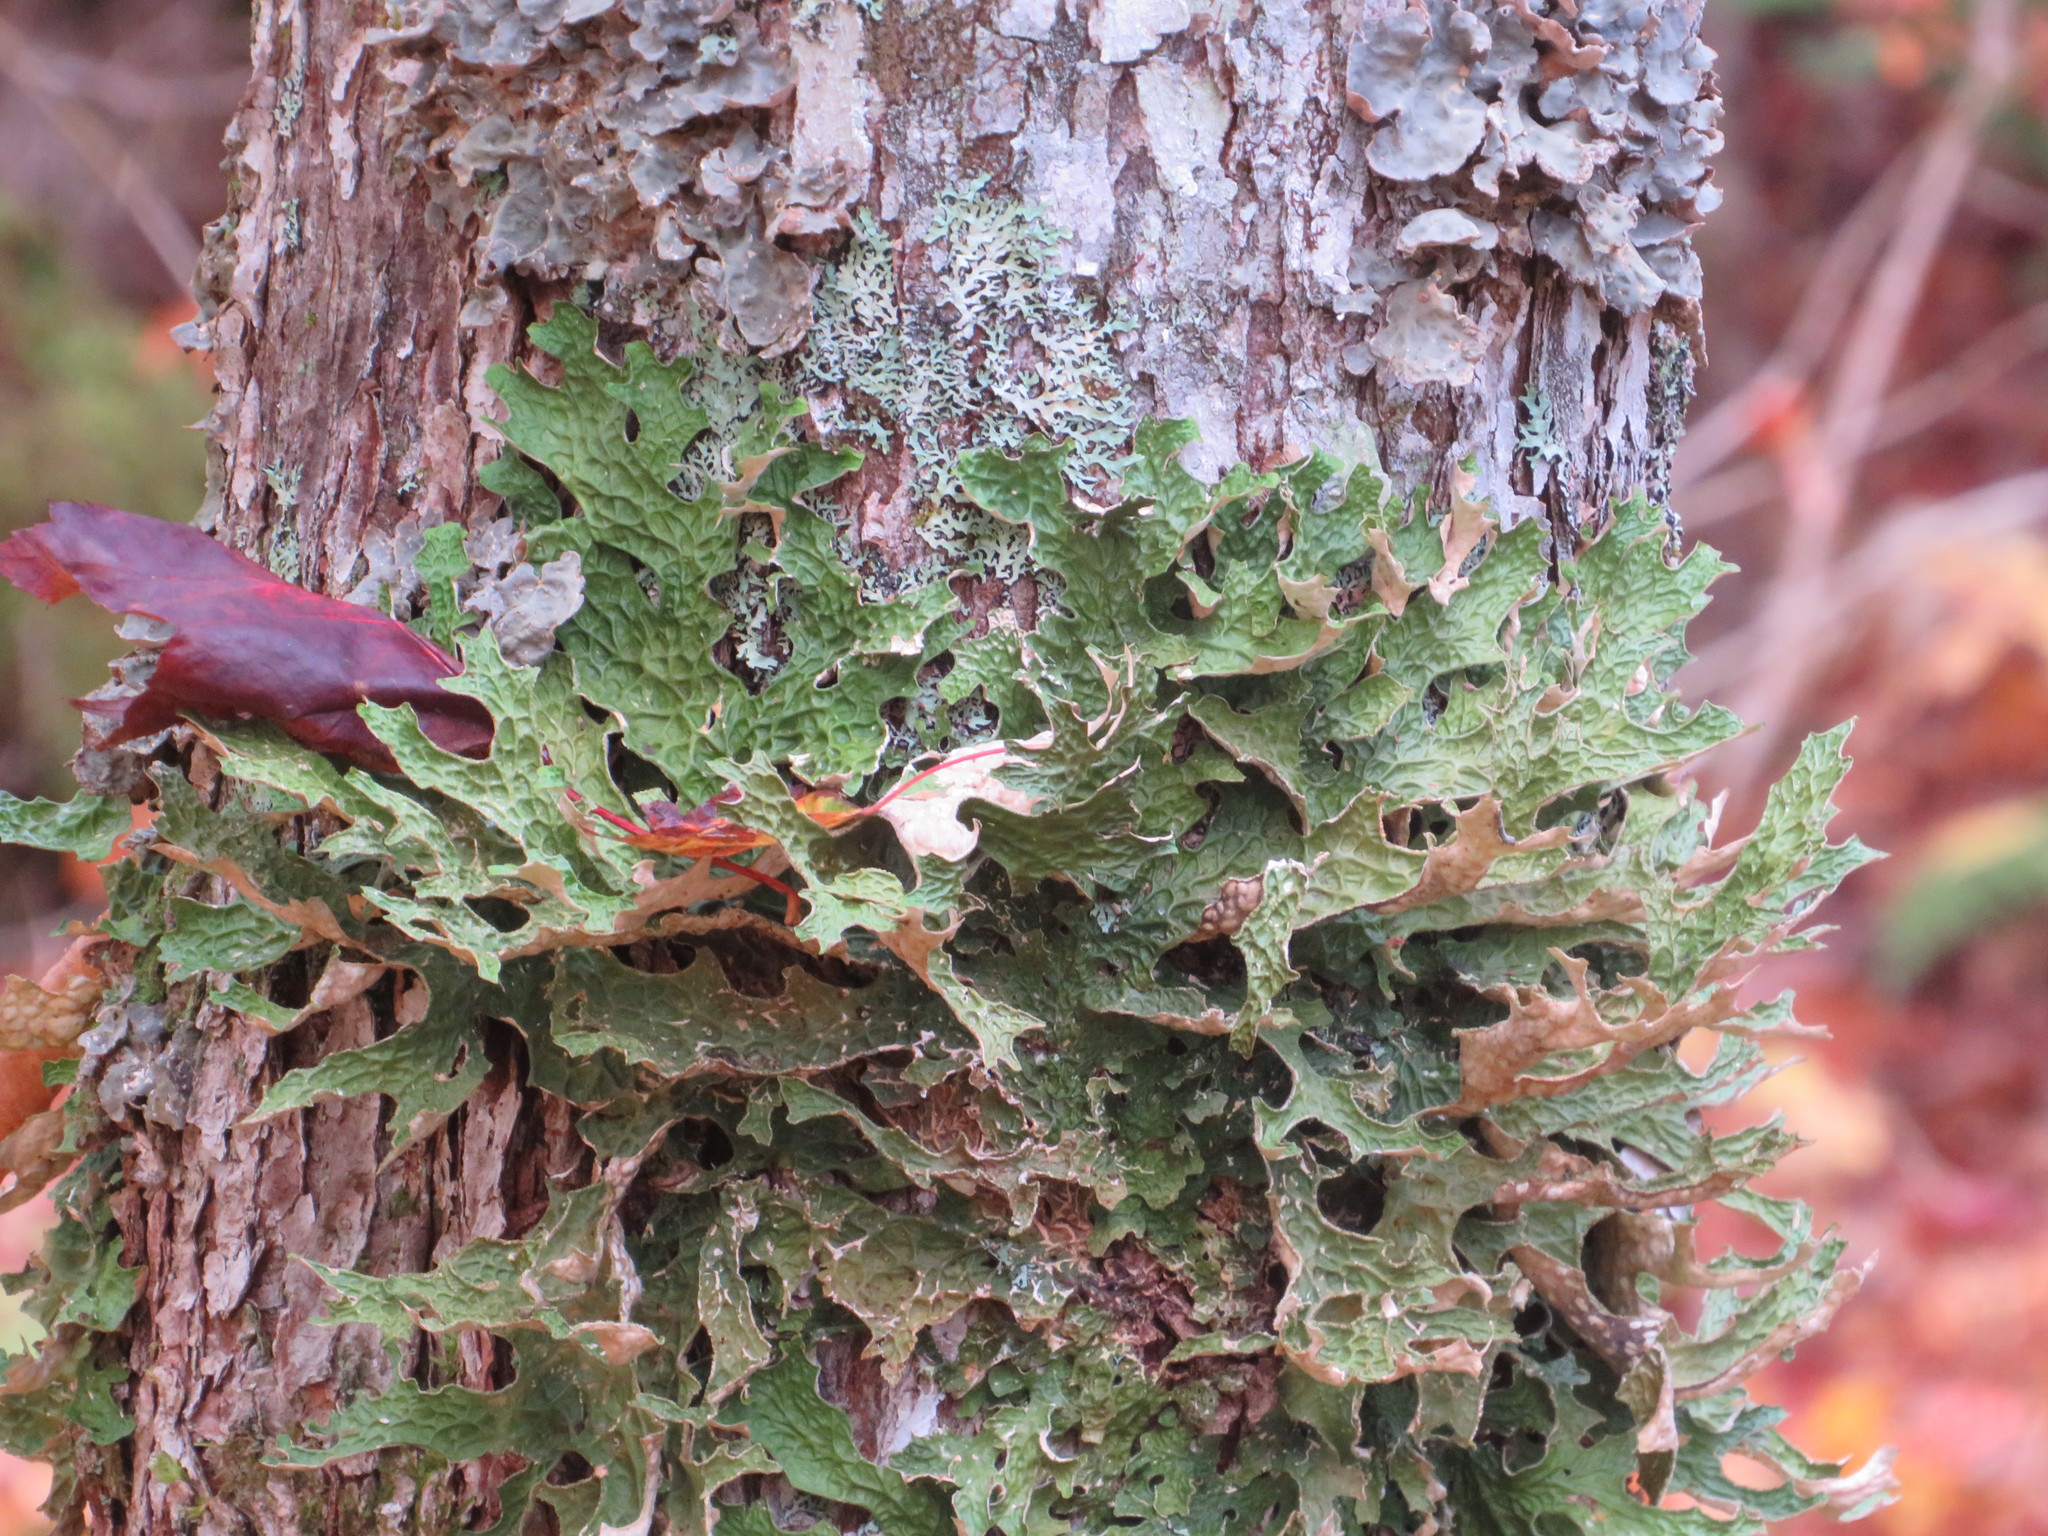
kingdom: Fungi
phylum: Ascomycota
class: Lecanoromycetes
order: Peltigerales
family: Lobariaceae
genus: Lobaria
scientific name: Lobaria pulmonaria
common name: Lungwort
